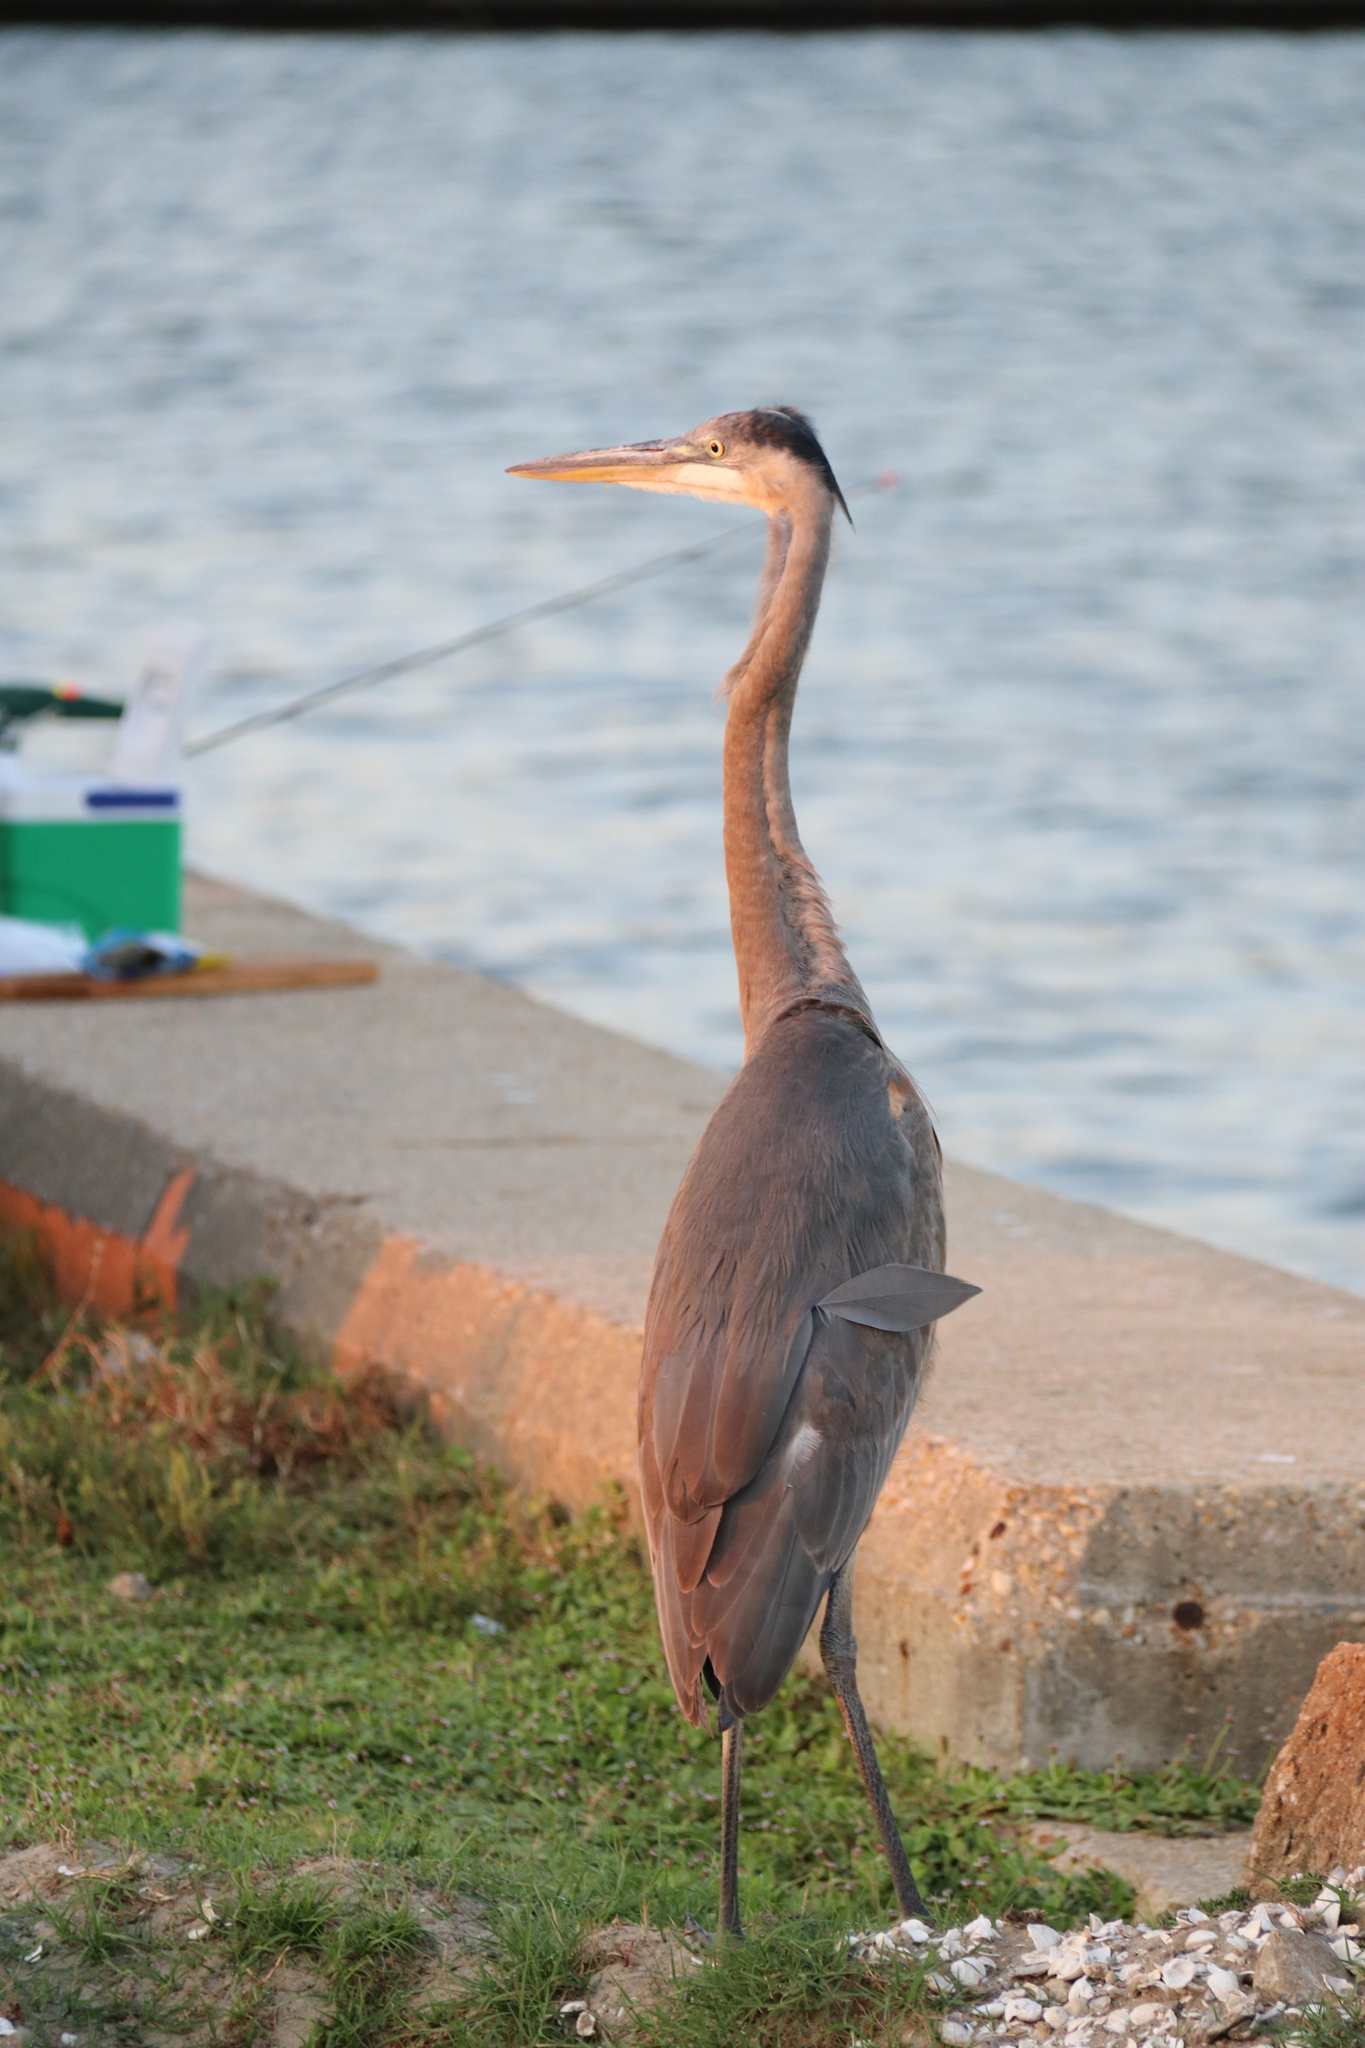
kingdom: Animalia
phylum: Chordata
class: Aves
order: Pelecaniformes
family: Ardeidae
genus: Ardea
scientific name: Ardea herodias
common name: Great blue heron
